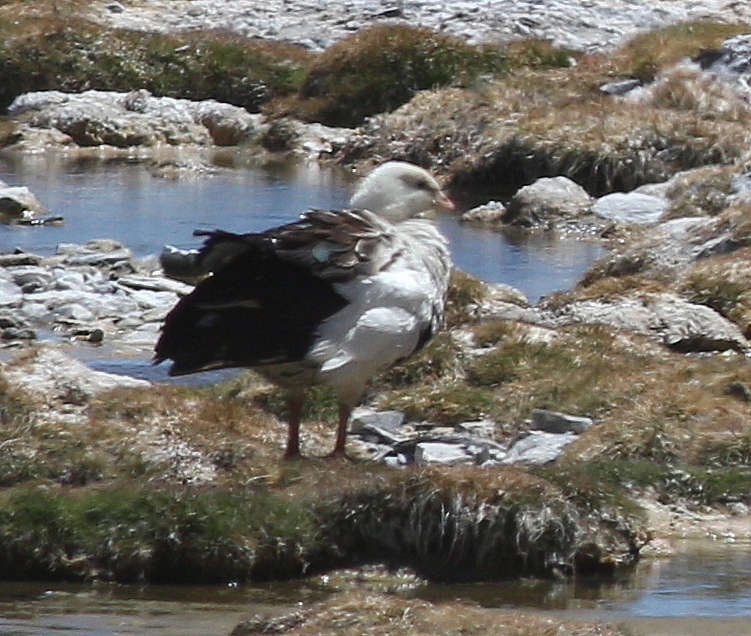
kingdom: Animalia
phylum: Chordata
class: Aves
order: Anseriformes
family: Anatidae
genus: Chloephaga
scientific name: Chloephaga melanoptera
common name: Andean goose
